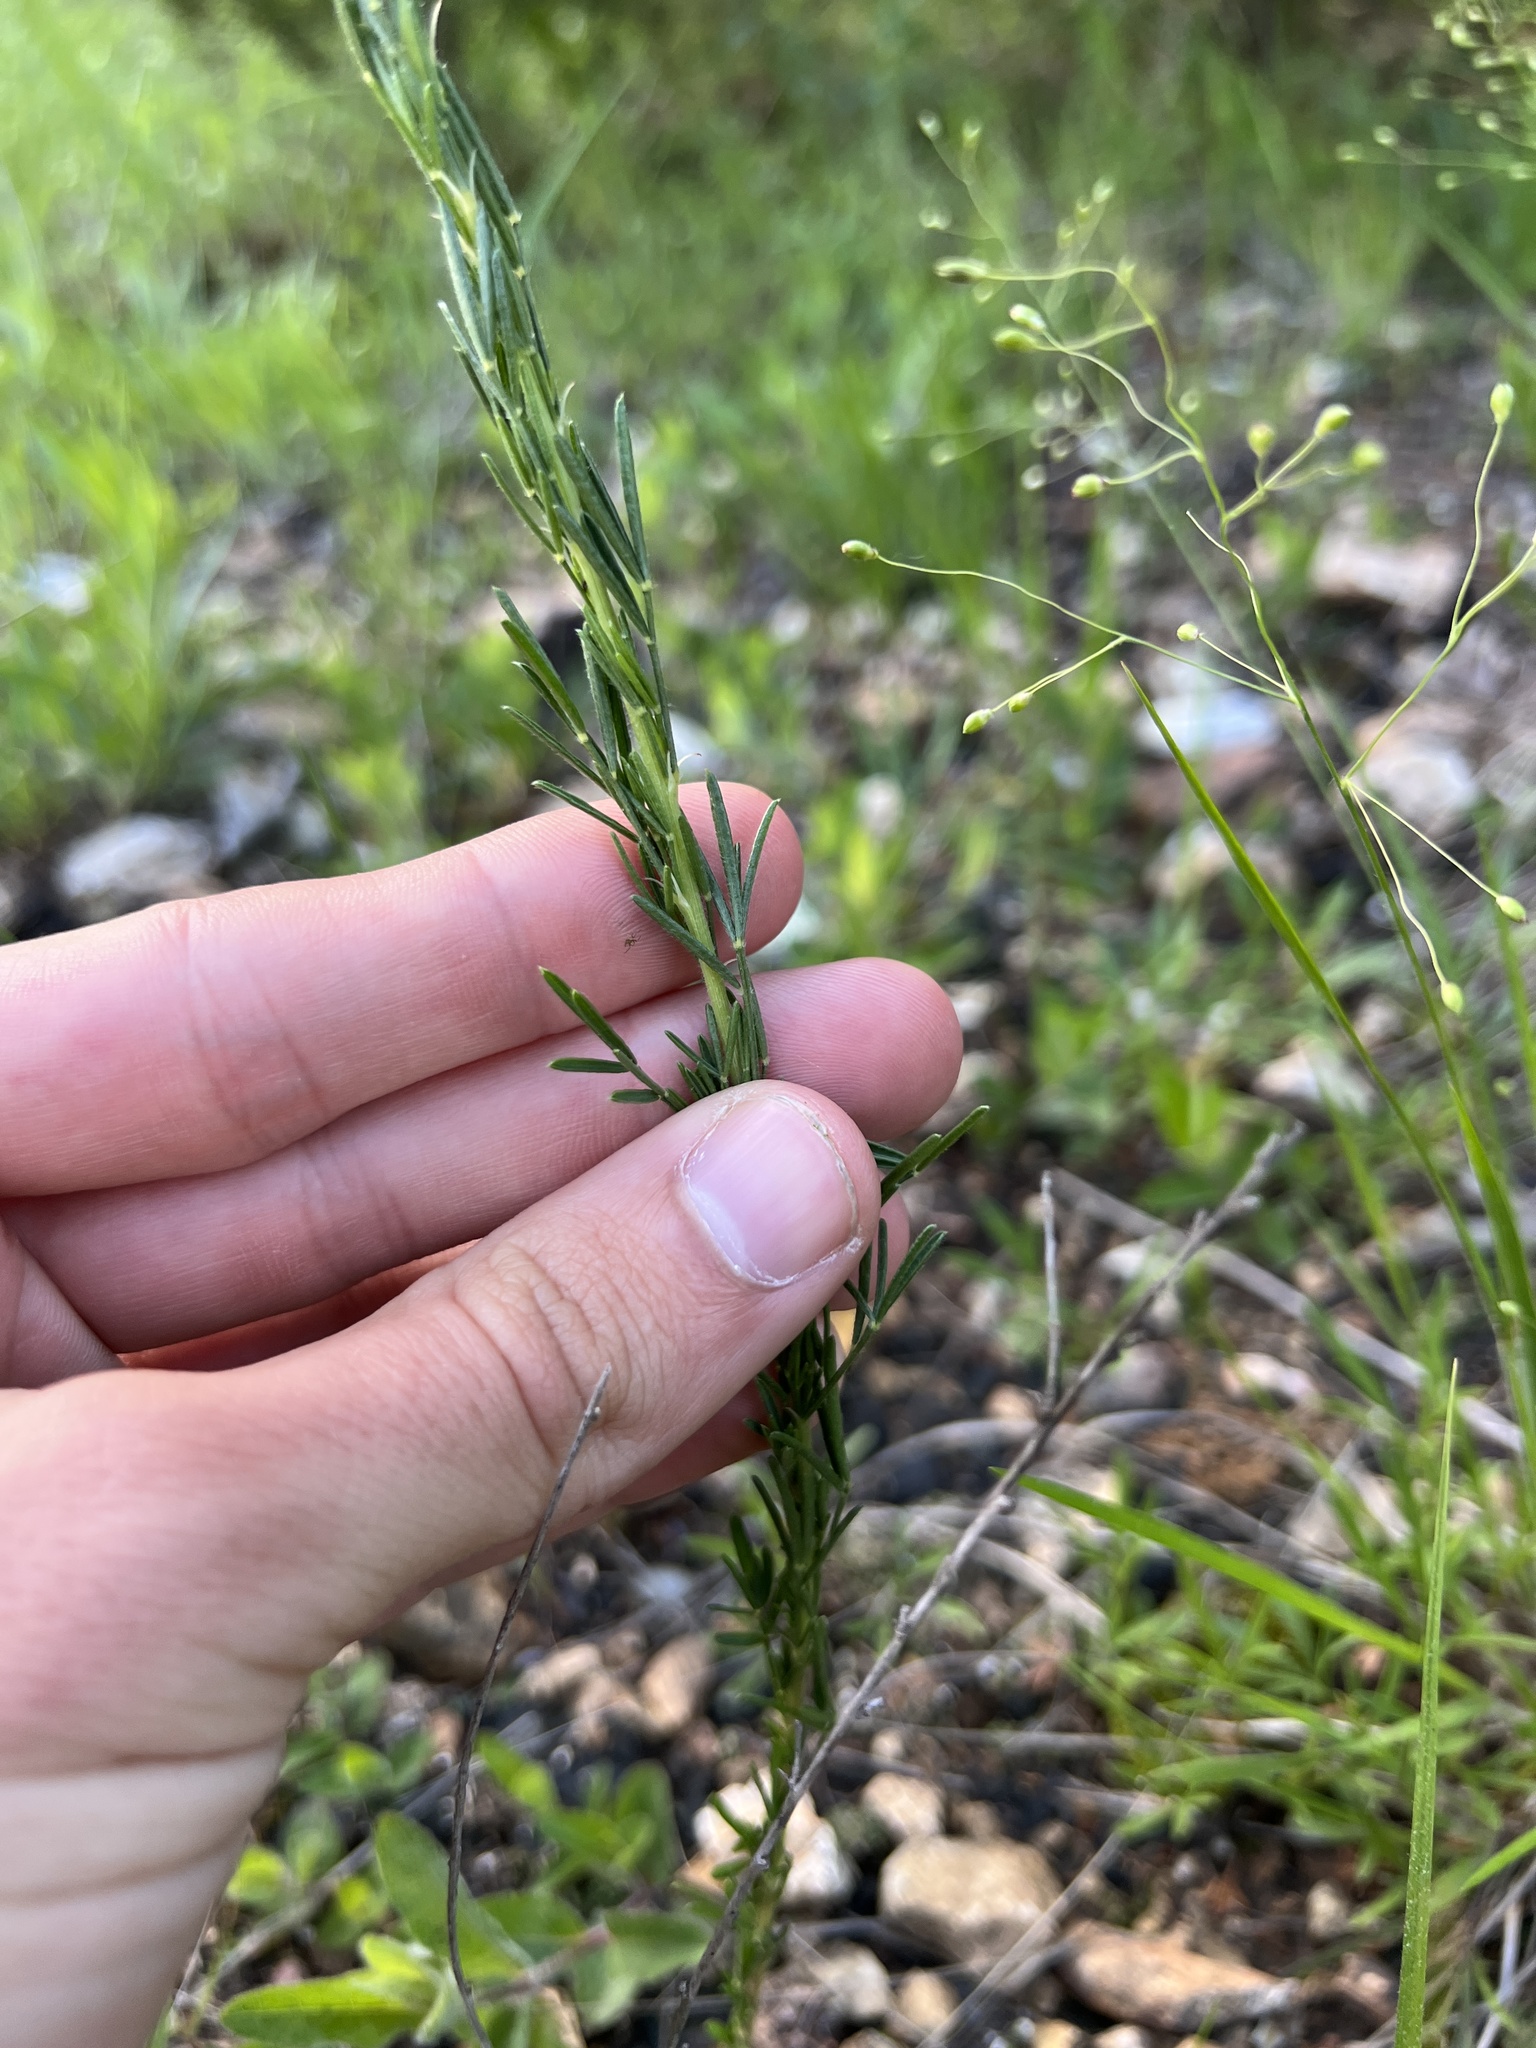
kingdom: Plantae
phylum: Tracheophyta
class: Magnoliopsida
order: Fabales
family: Fabaceae
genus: Dalea
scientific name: Dalea purpurea
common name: Purple prairie-clover
